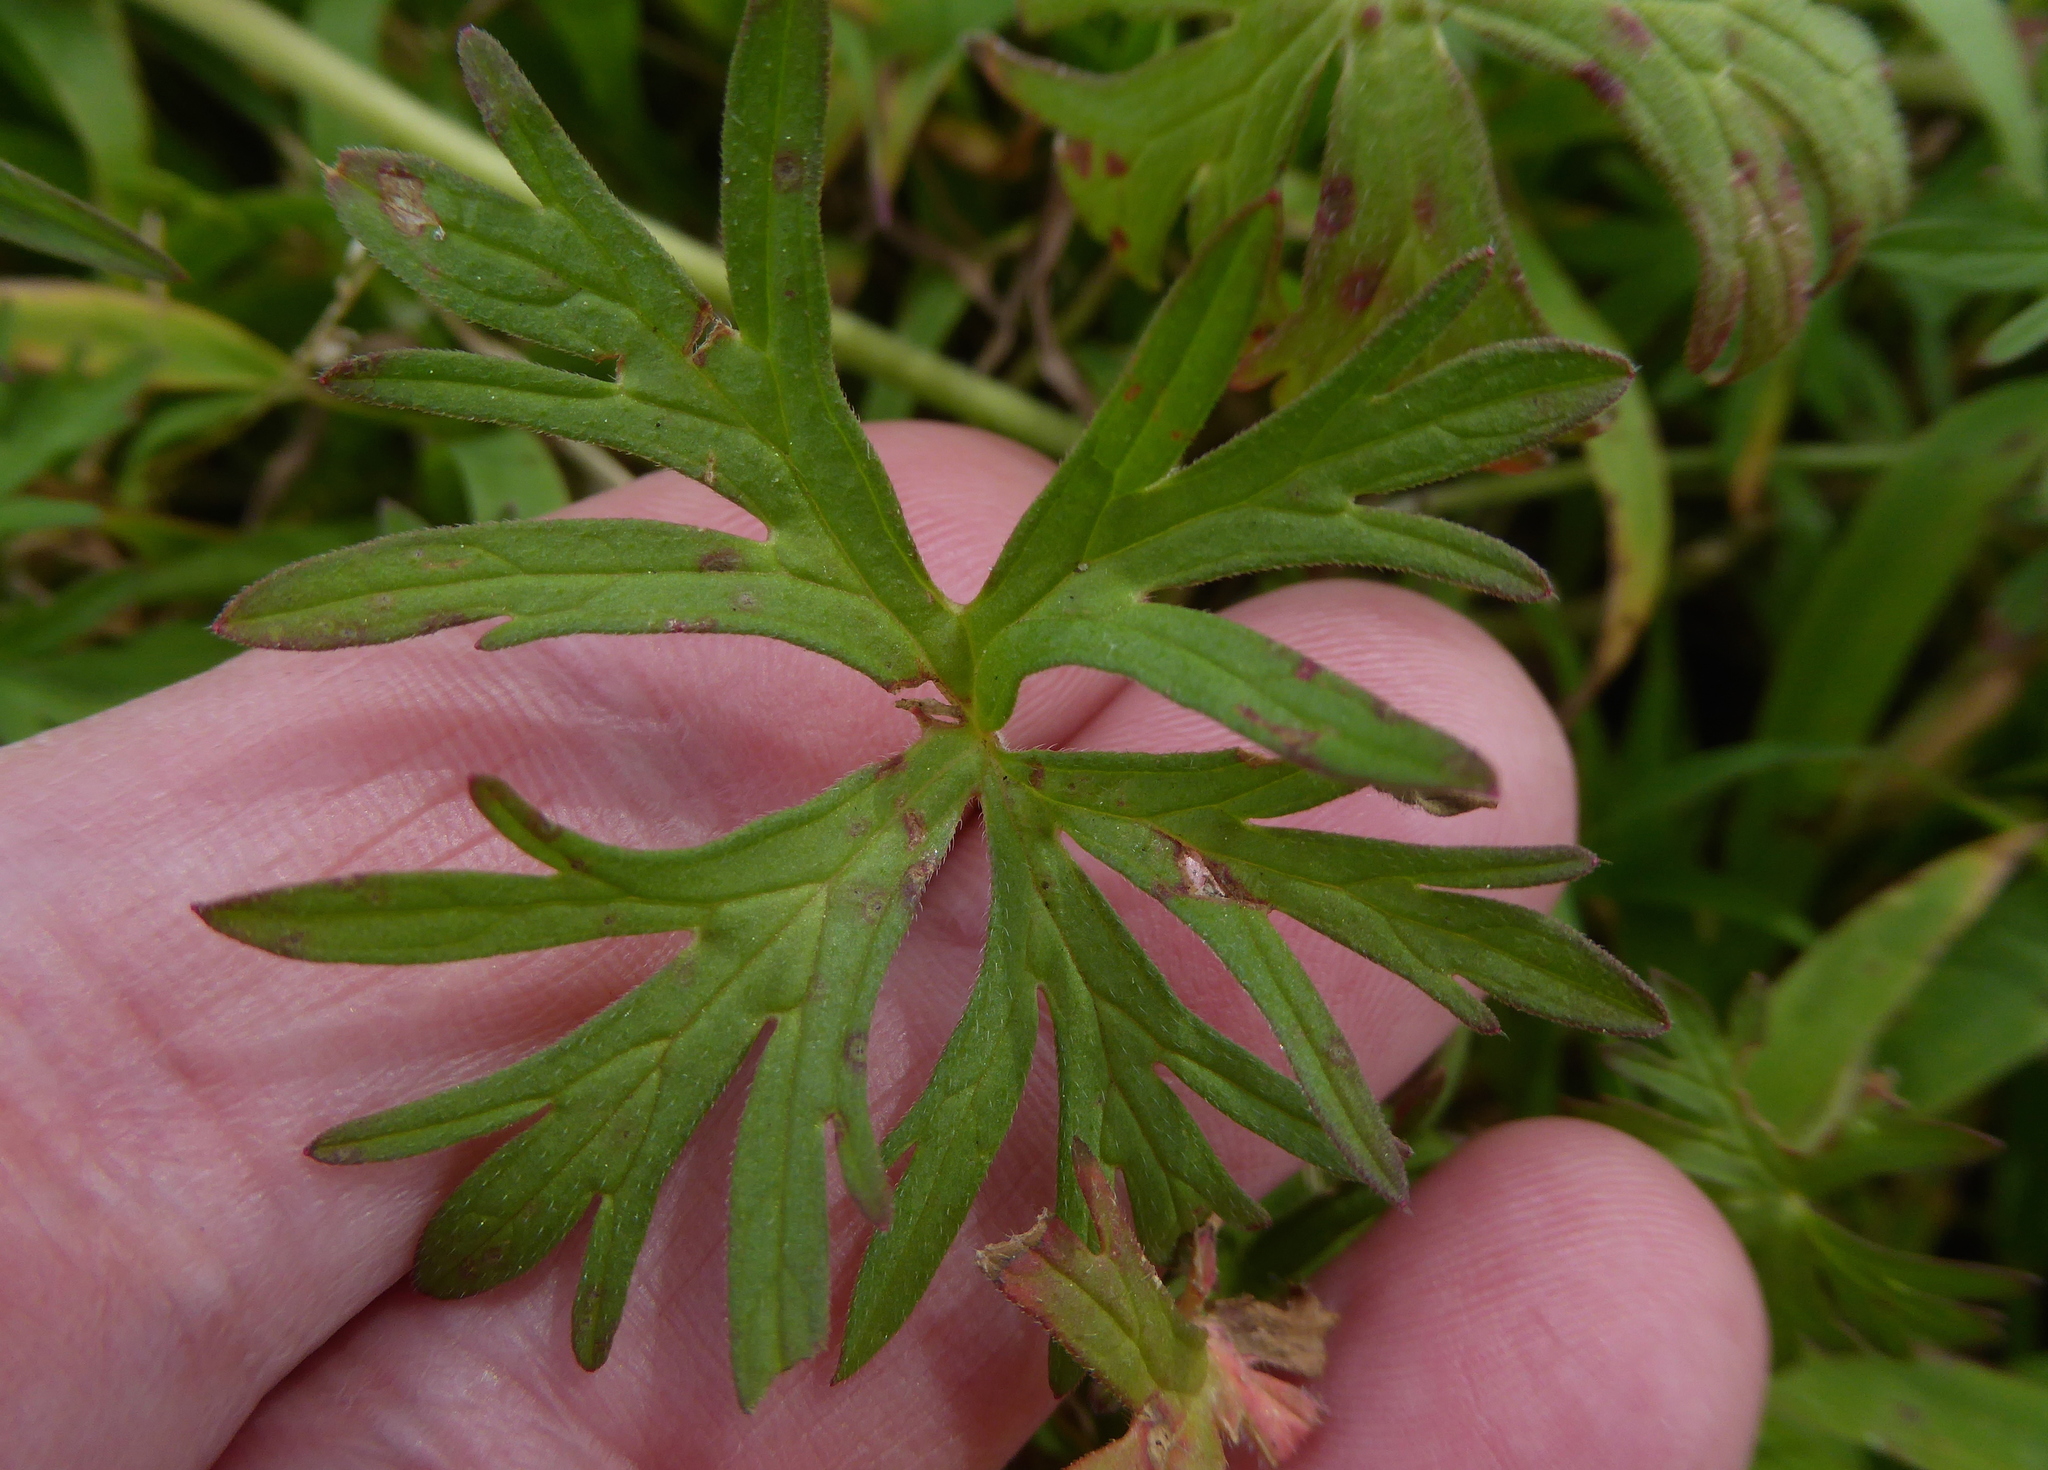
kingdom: Plantae
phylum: Tracheophyta
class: Magnoliopsida
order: Geraniales
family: Geraniaceae
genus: Geranium
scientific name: Geranium dissectum
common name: Cut-leaved crane's-bill
